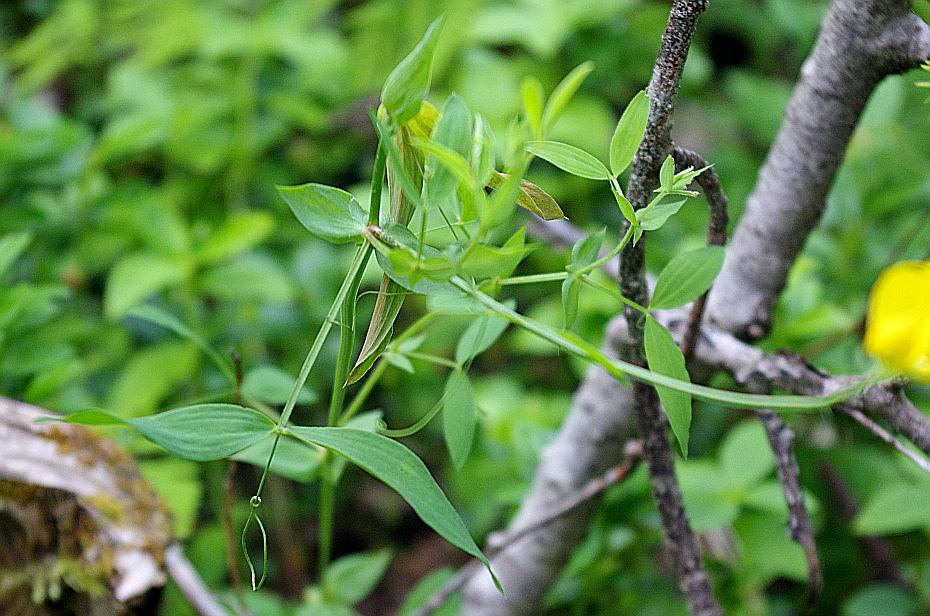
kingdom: Plantae
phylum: Tracheophyta
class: Magnoliopsida
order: Fabales
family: Fabaceae
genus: Lathyrus
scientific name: Lathyrus pratensis
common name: Meadow vetchling
